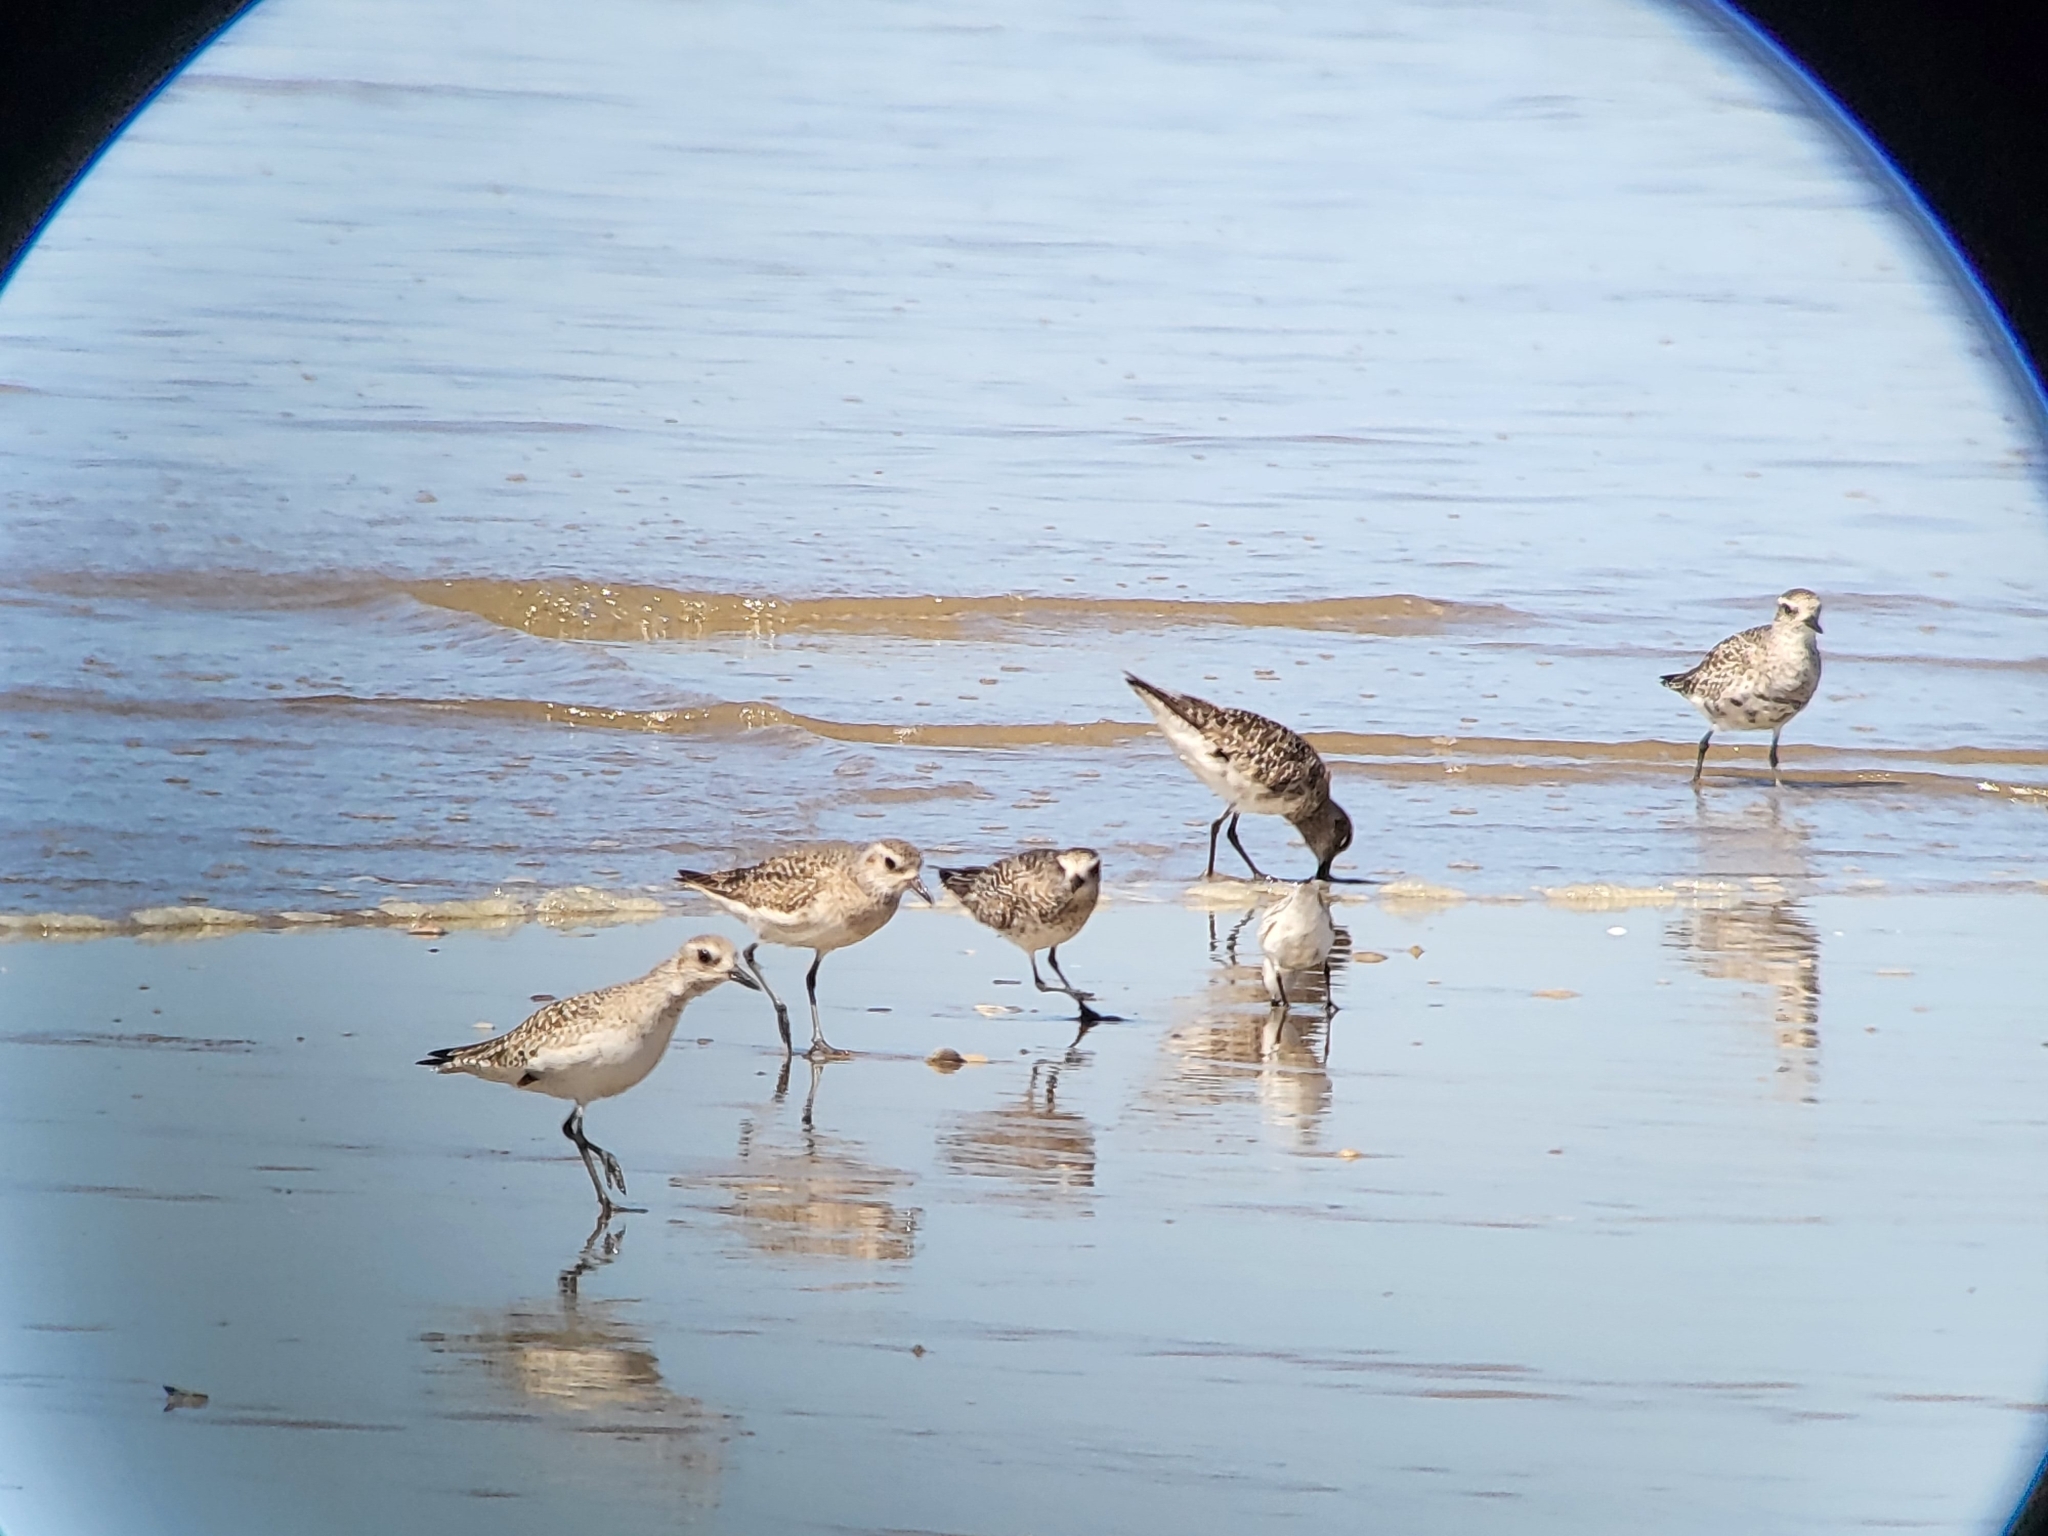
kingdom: Animalia
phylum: Chordata
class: Aves
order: Charadriiformes
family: Charadriidae
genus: Pluvialis
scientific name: Pluvialis squatarola
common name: Grey plover
